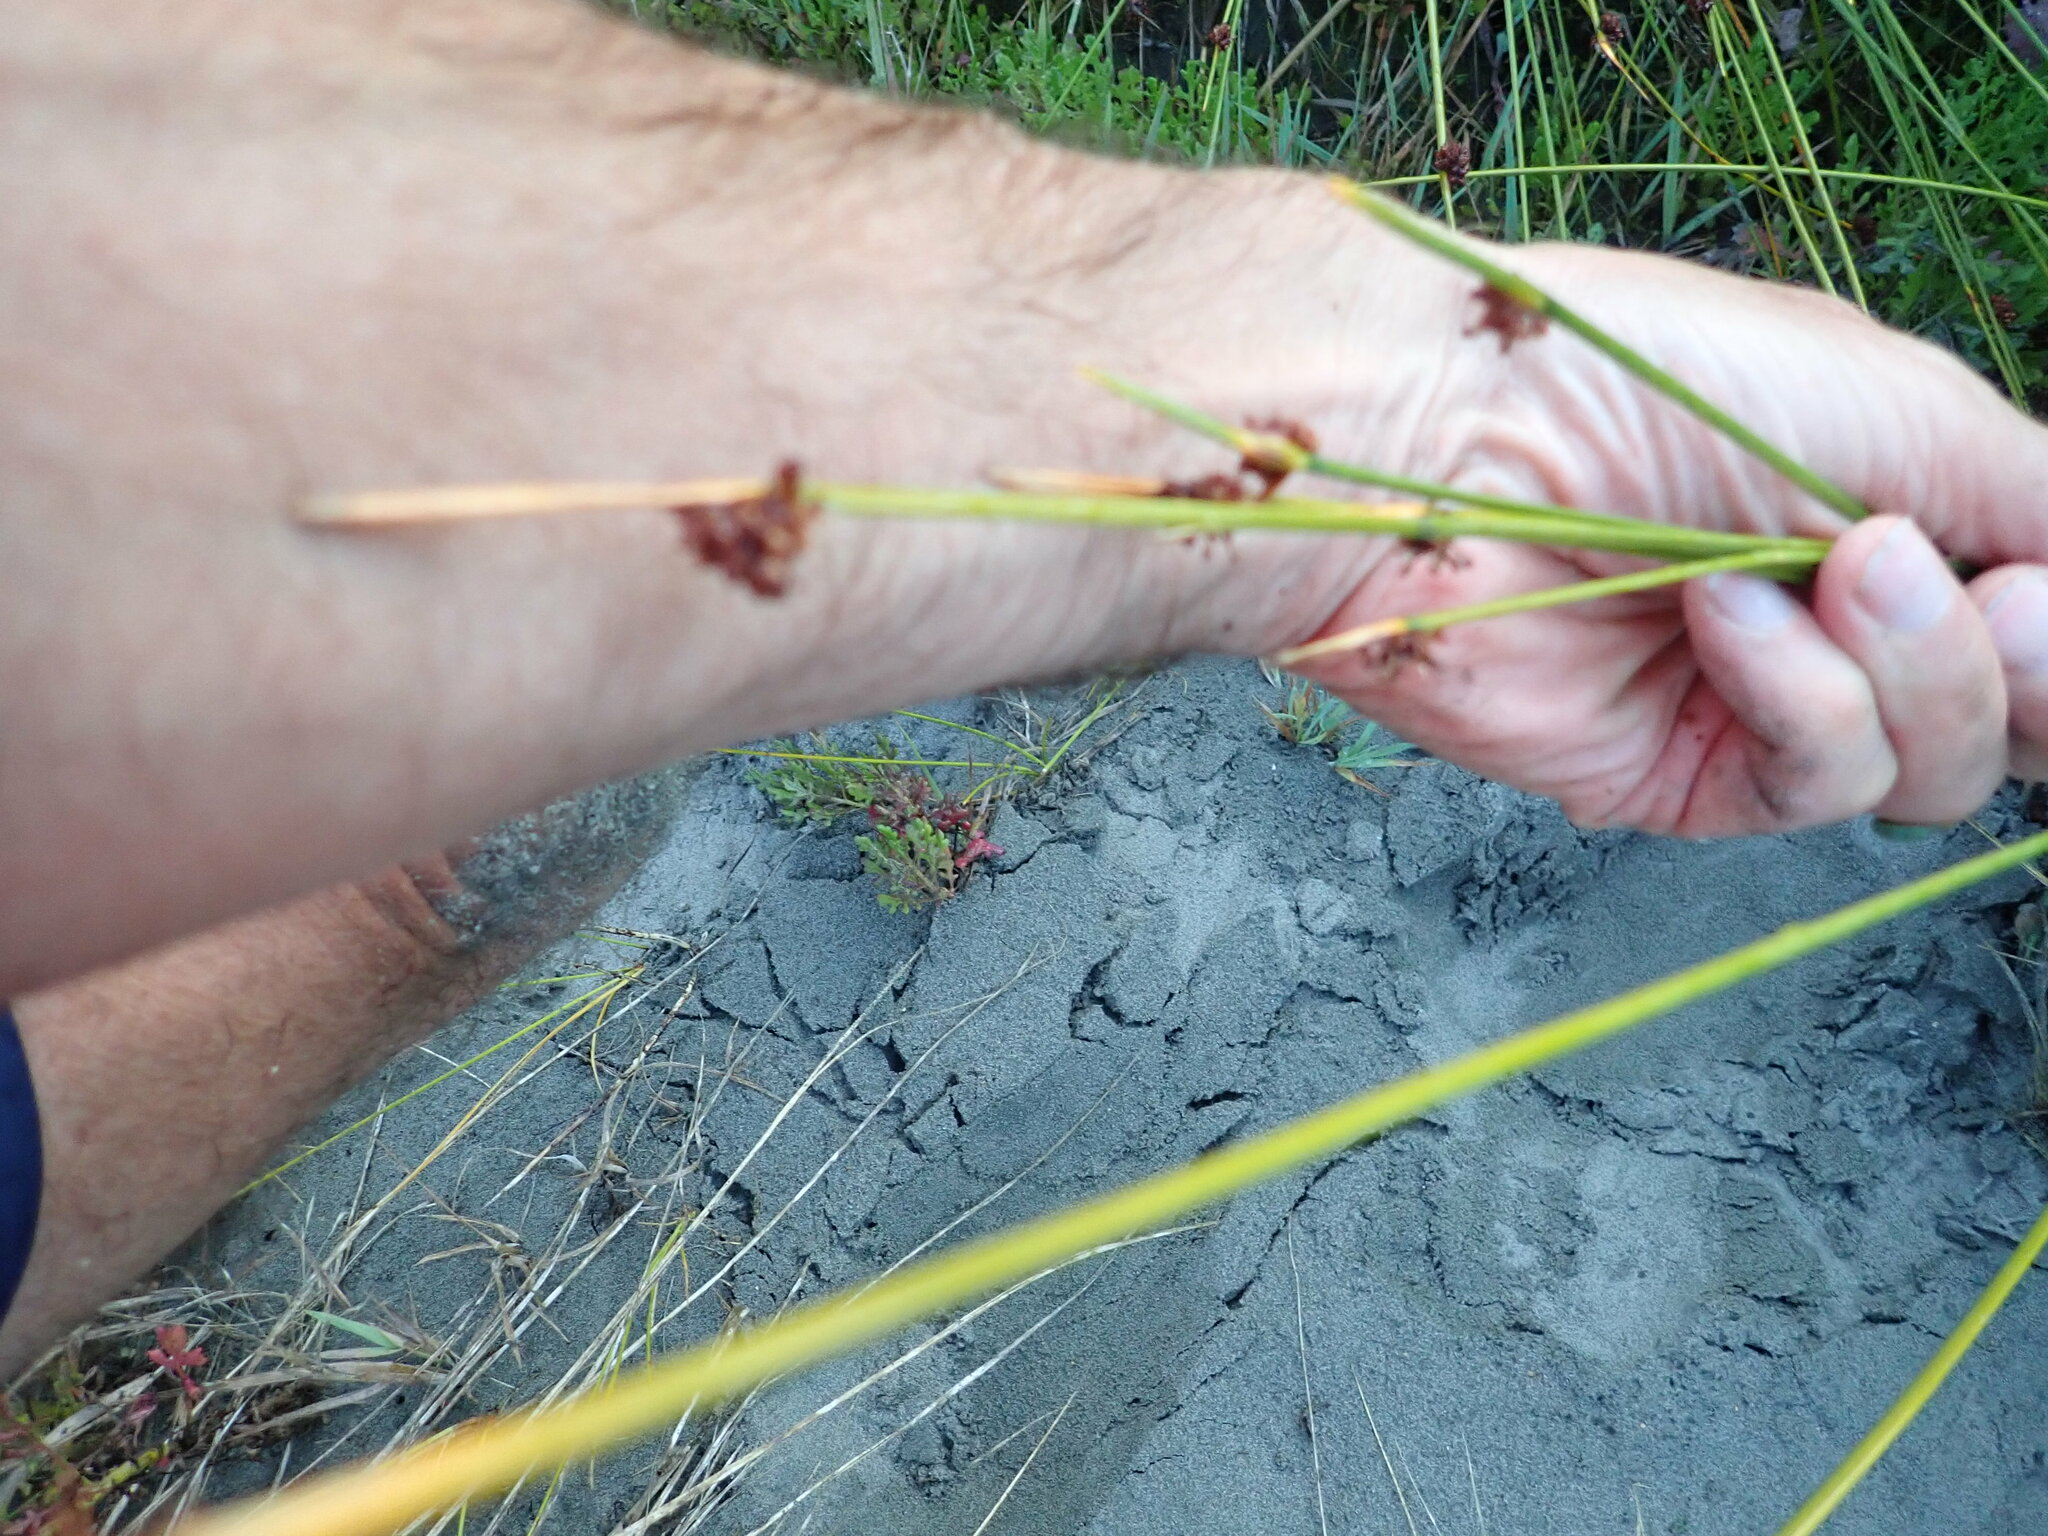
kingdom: Plantae
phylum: Tracheophyta
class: Liliopsida
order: Poales
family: Cyperaceae
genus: Ficinia
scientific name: Ficinia nodosa
